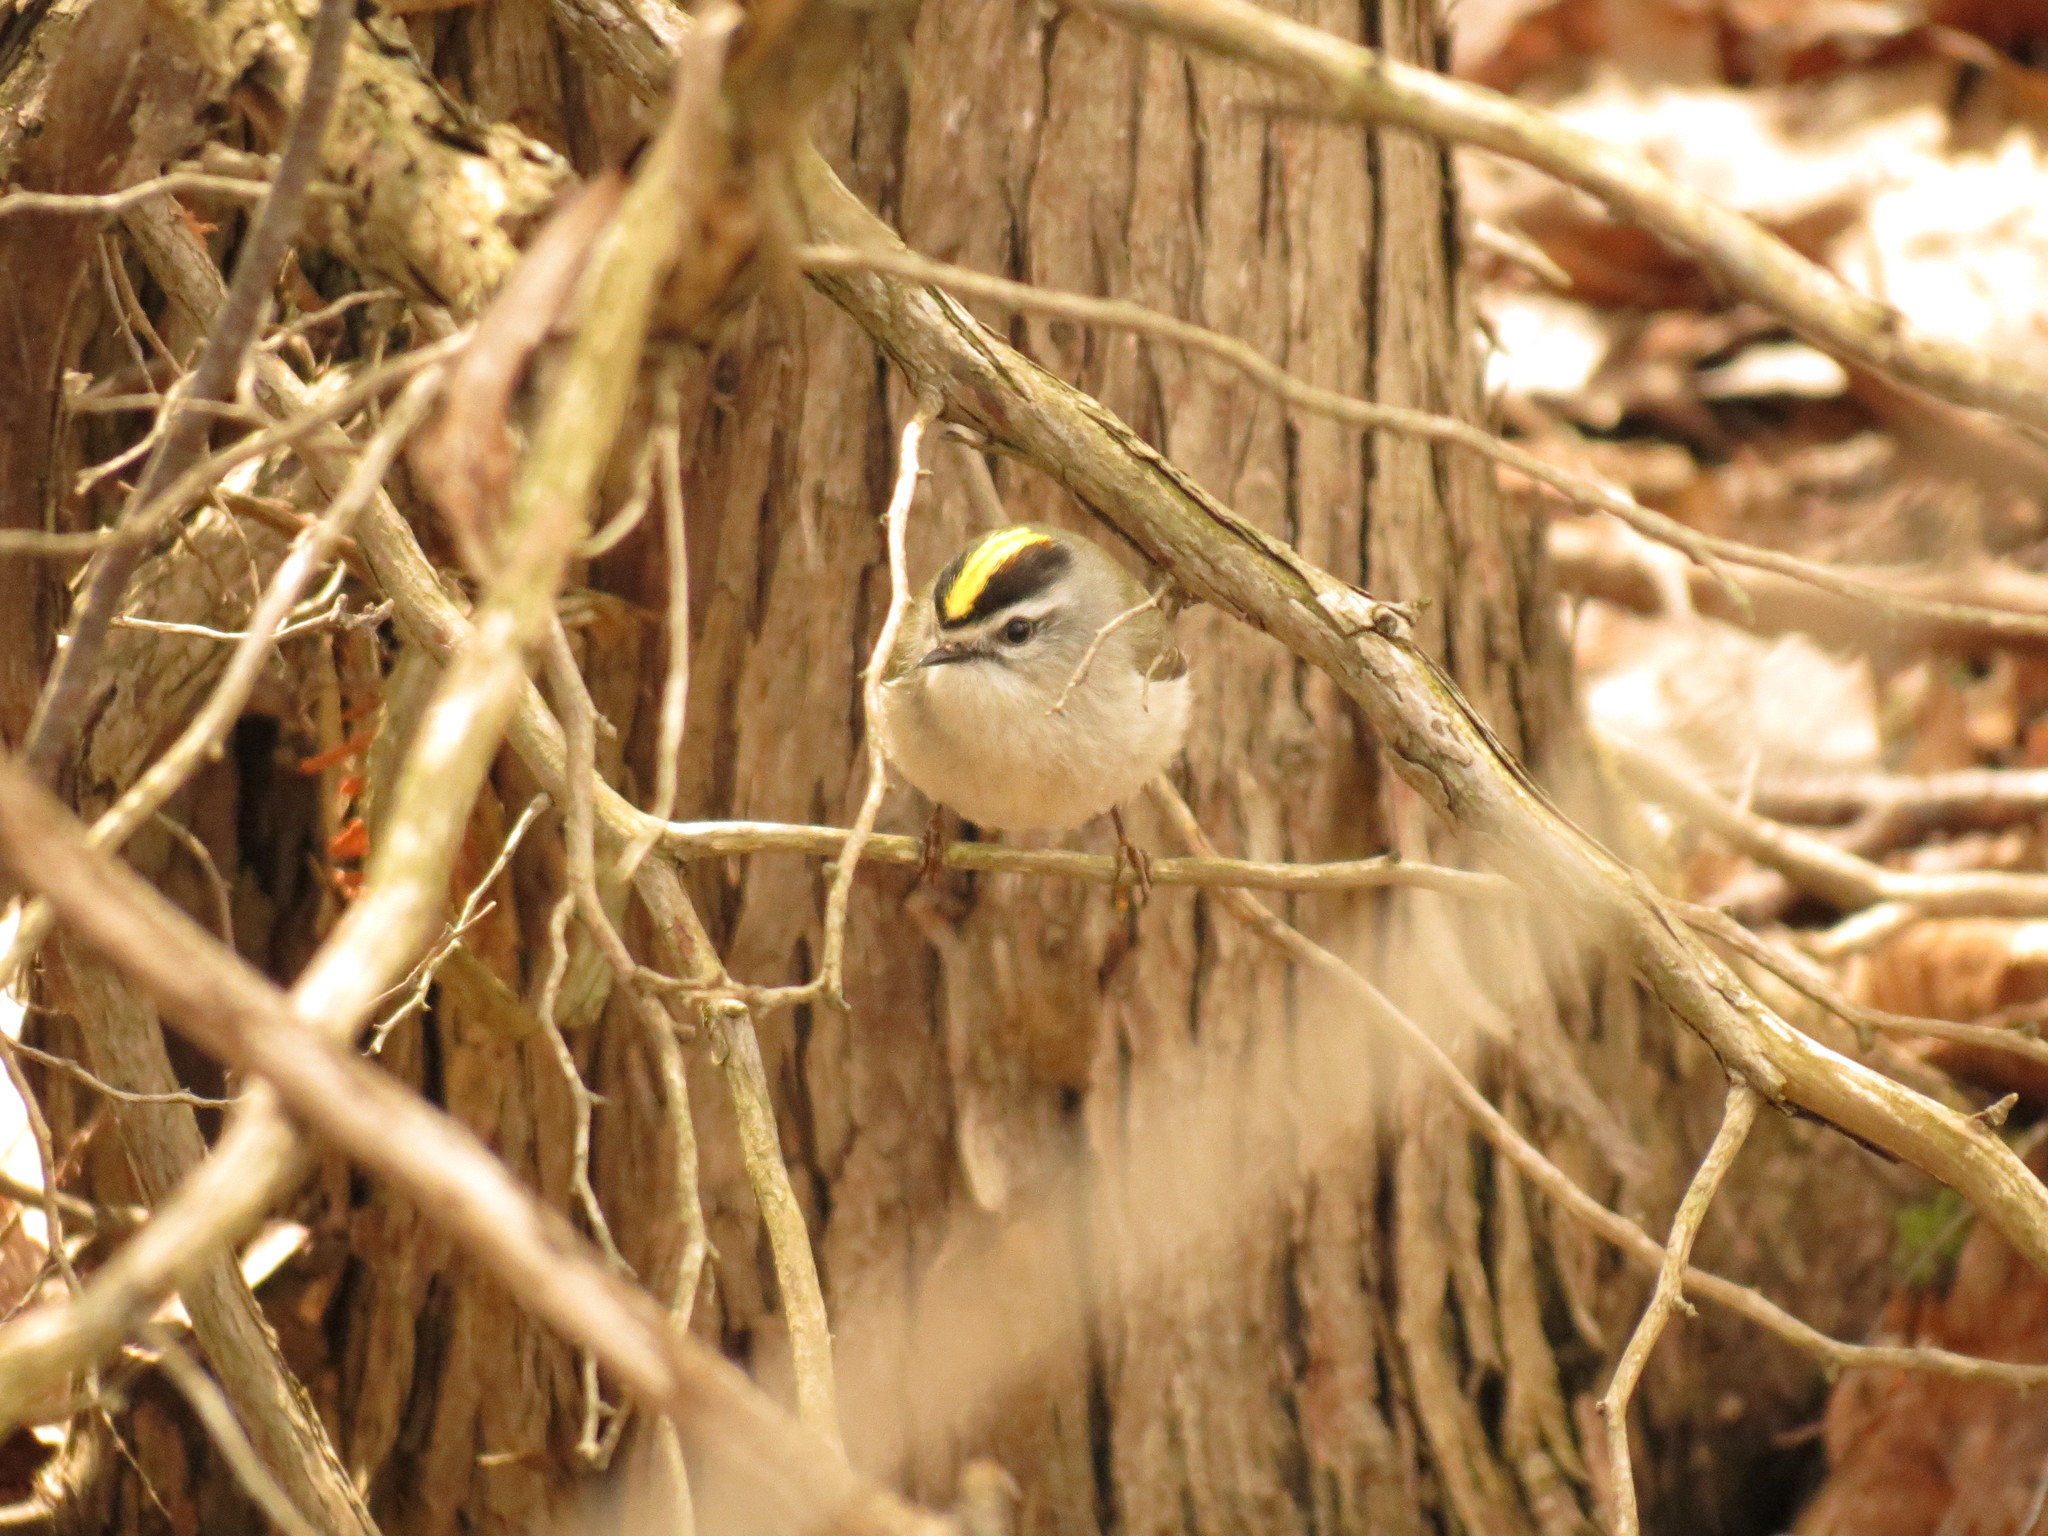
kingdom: Animalia
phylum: Chordata
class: Aves
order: Passeriformes
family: Regulidae
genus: Regulus
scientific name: Regulus satrapa
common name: Golden-crowned kinglet
